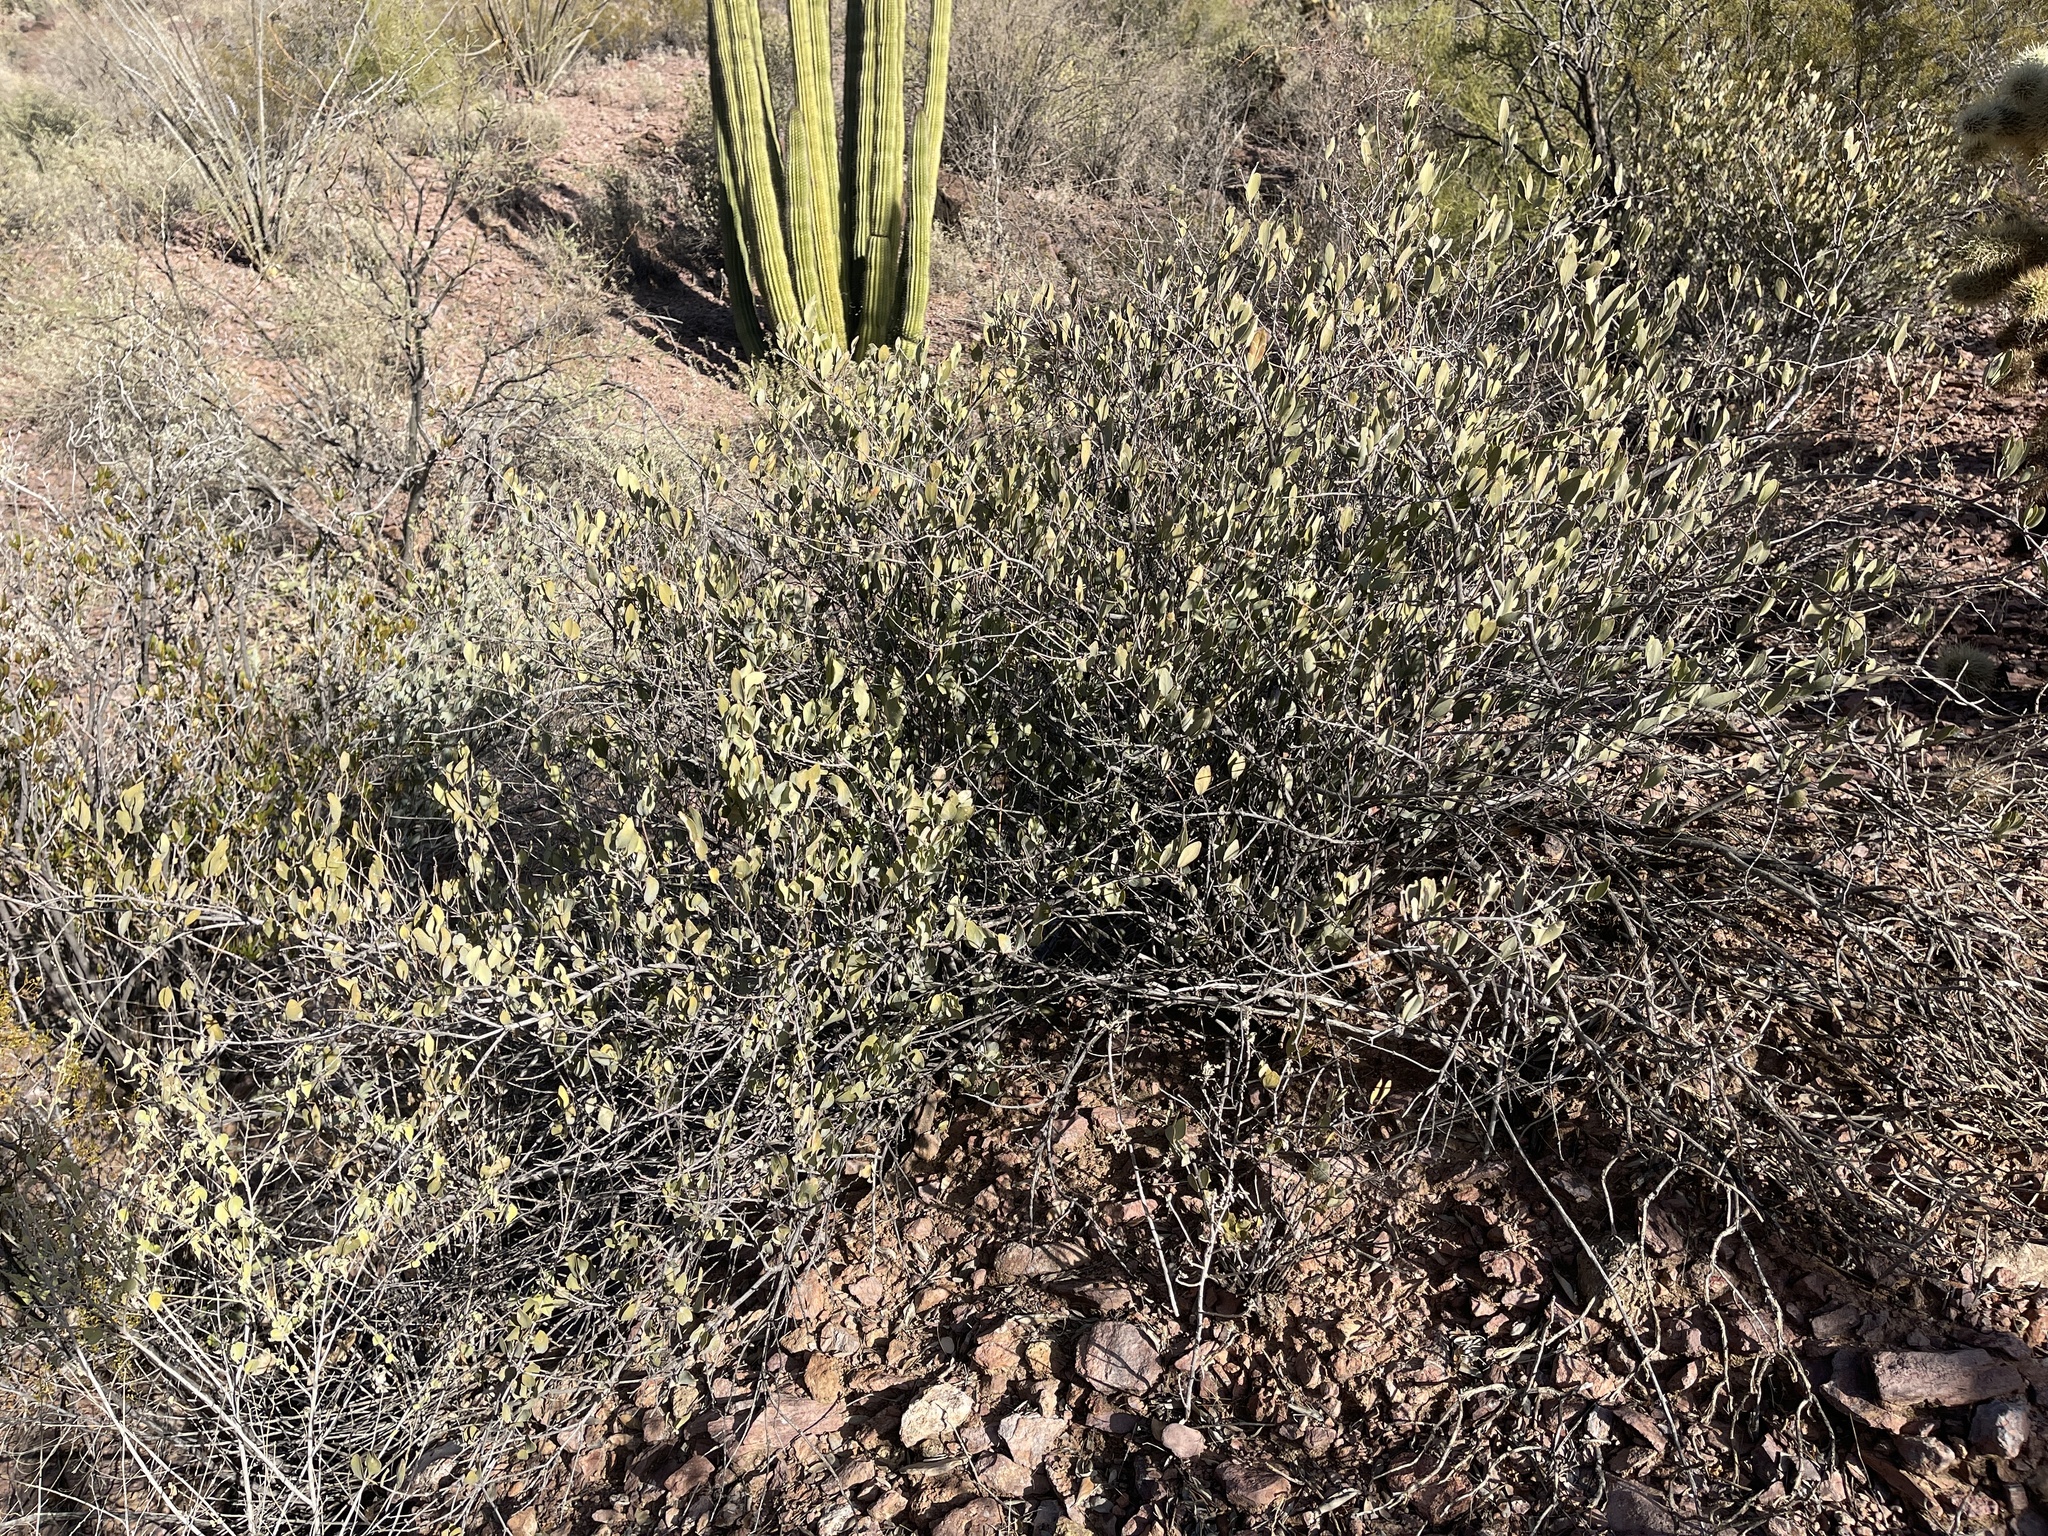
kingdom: Plantae
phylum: Tracheophyta
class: Magnoliopsida
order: Caryophyllales
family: Simmondsiaceae
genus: Simmondsia
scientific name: Simmondsia chinensis
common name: Jojoba
